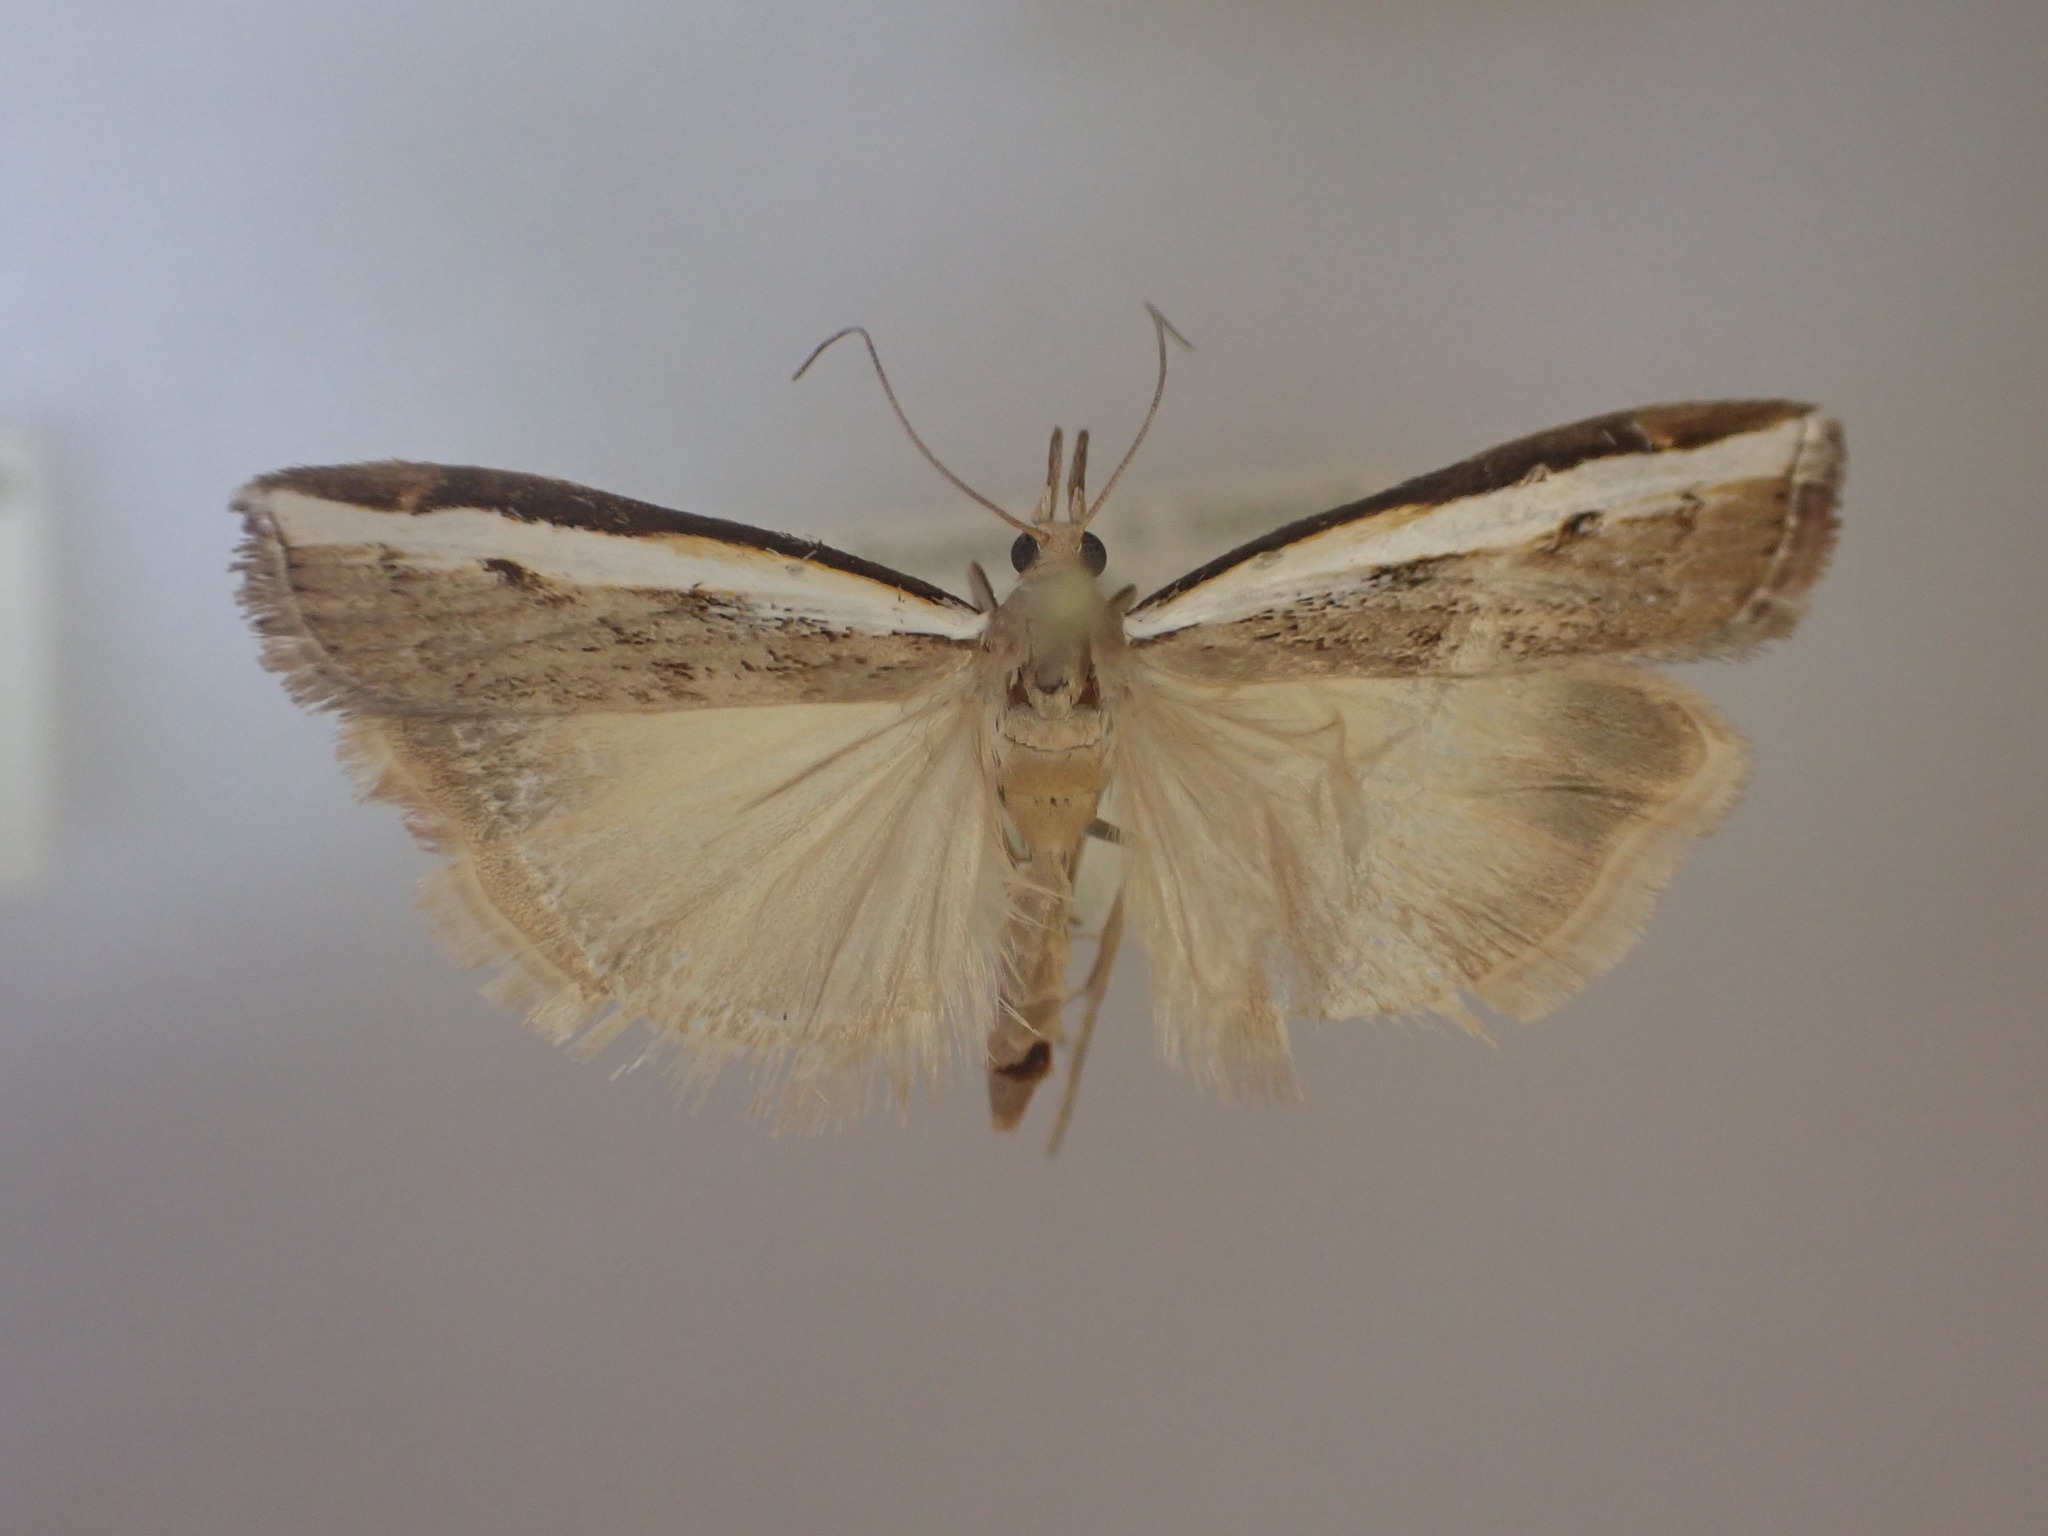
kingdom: Animalia
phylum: Arthropoda
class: Insecta
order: Lepidoptera
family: Crambidae
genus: Orocrambus
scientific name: Orocrambus flexuosellus
